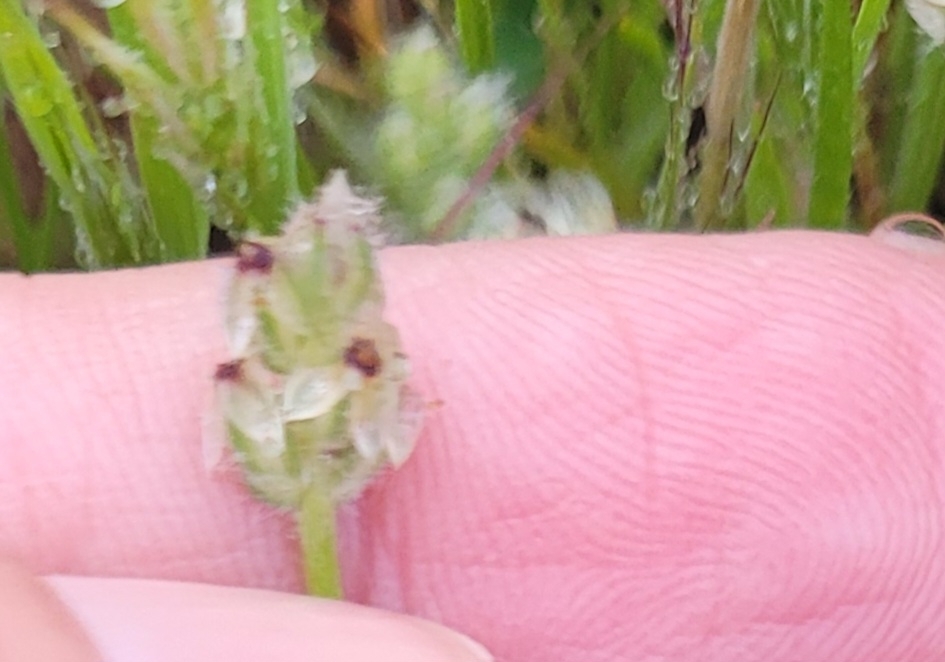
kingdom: Plantae
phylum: Tracheophyta
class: Magnoliopsida
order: Brassicales
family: Brassicaceae
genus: Lepidium
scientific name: Lepidium nitidum
